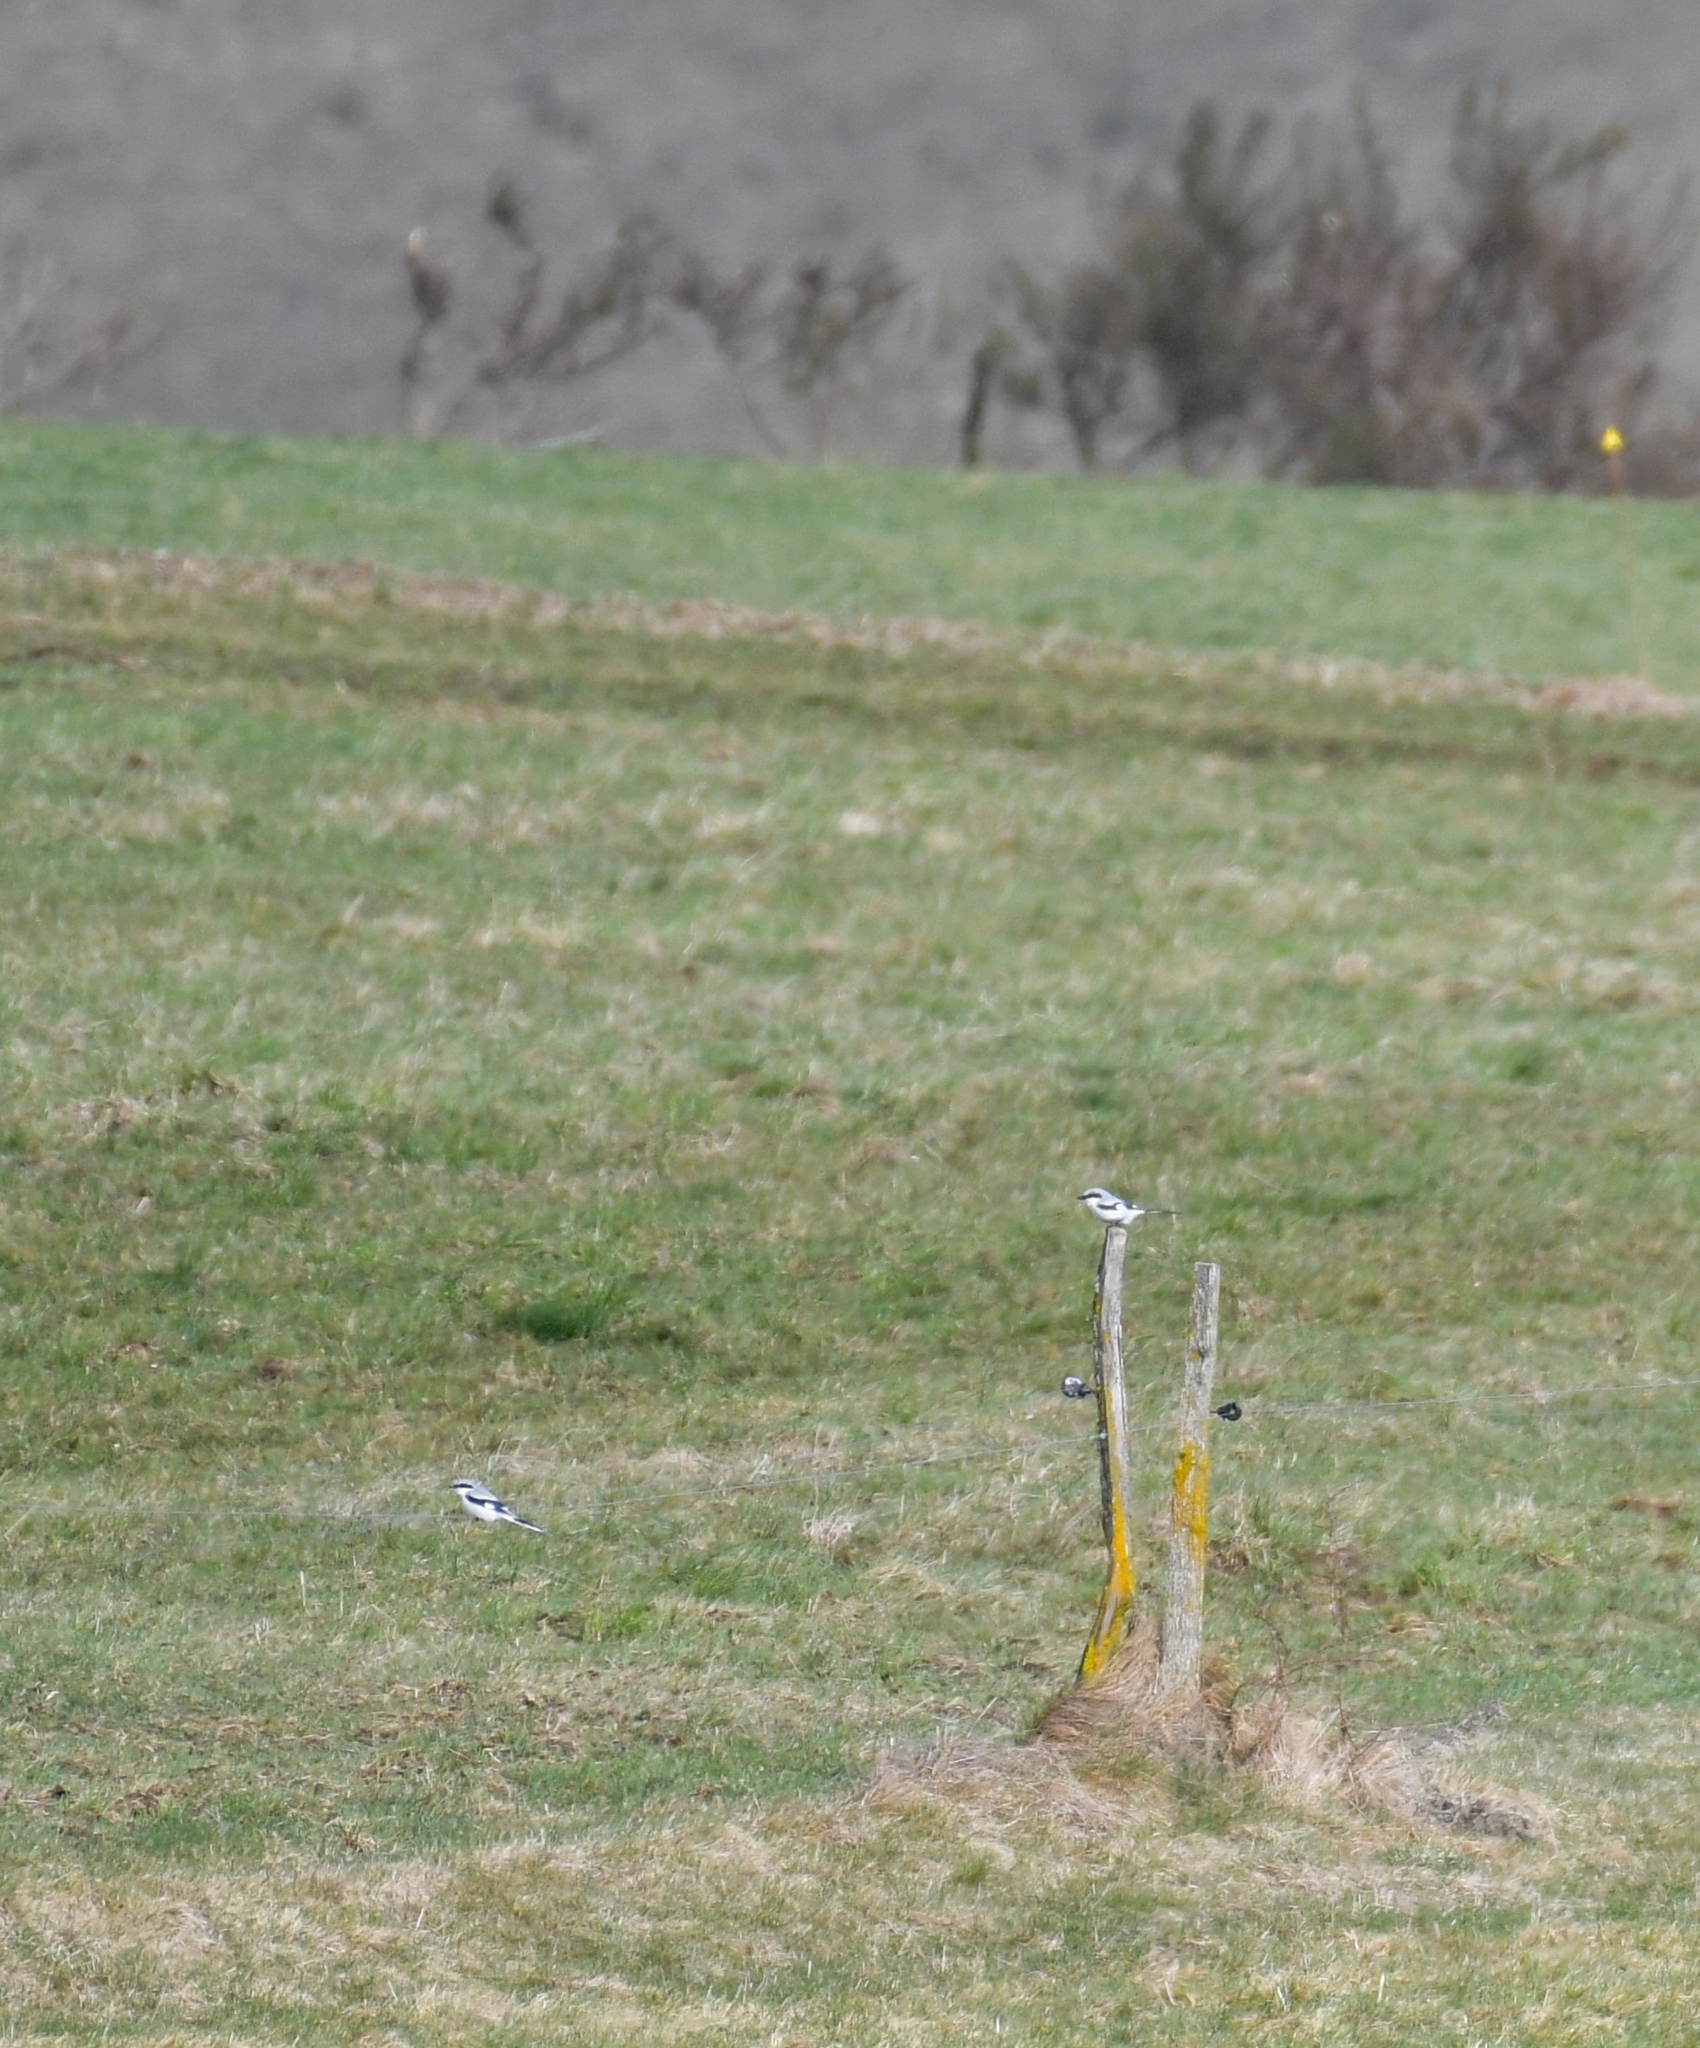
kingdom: Animalia
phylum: Chordata
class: Aves
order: Passeriformes
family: Laniidae
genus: Lanius
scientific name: Lanius excubitor
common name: Great grey shrike
